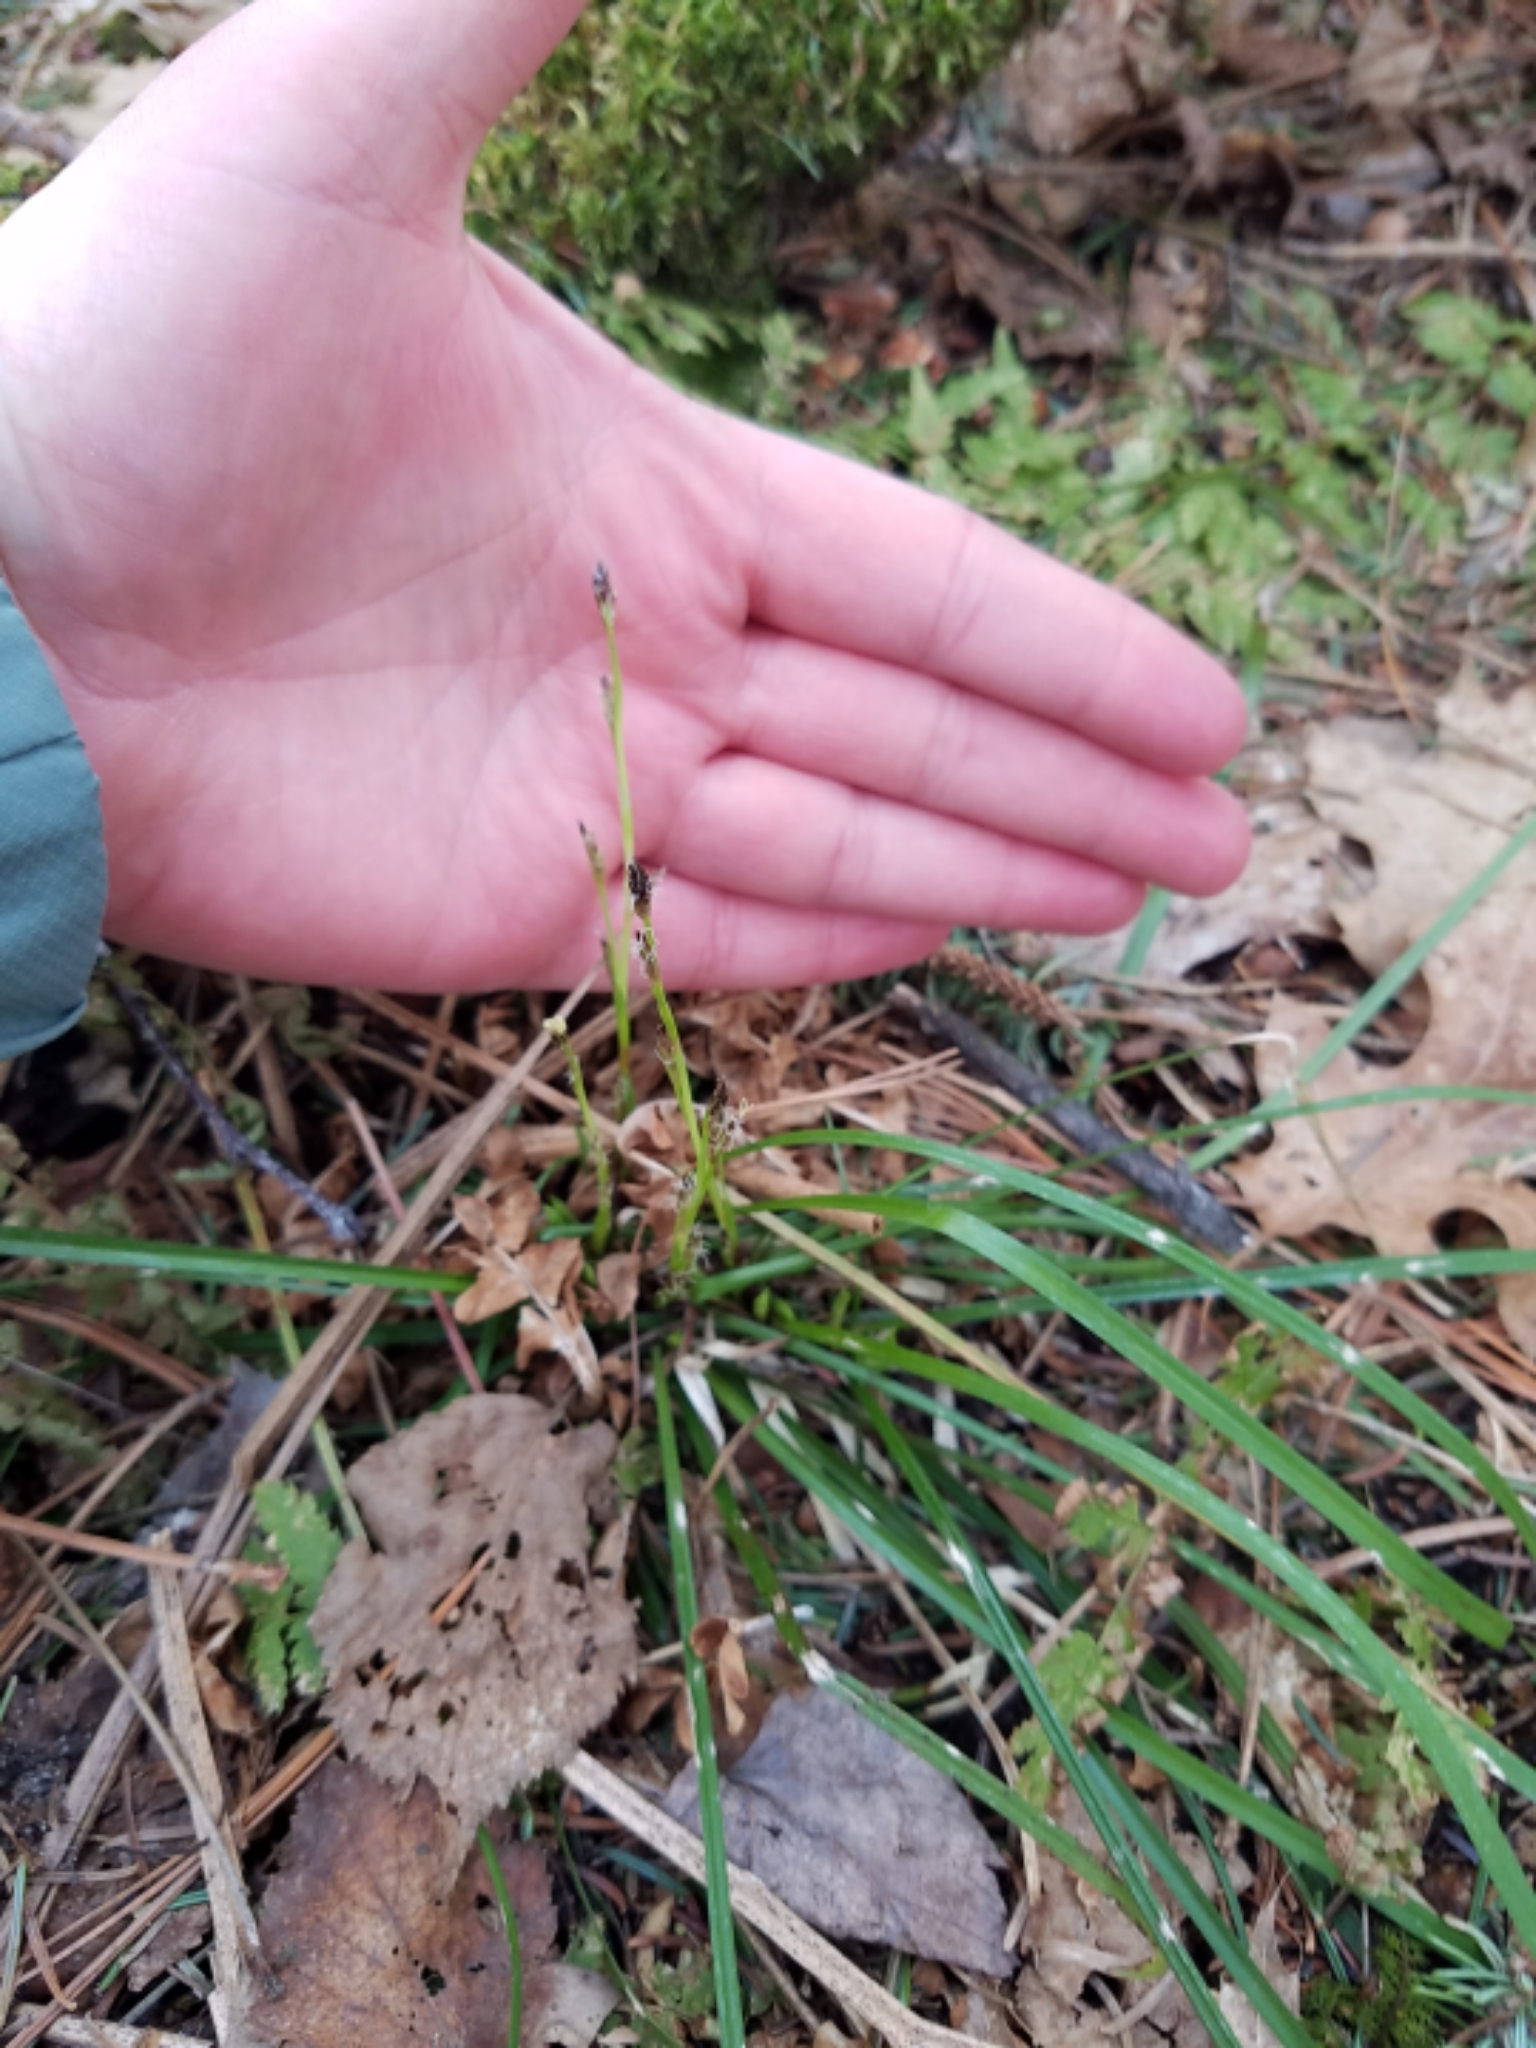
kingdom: Plantae
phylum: Tracheophyta
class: Liliopsida
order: Poales
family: Cyperaceae
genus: Carex
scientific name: Carex pedunculata
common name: Pedunculate sedge
